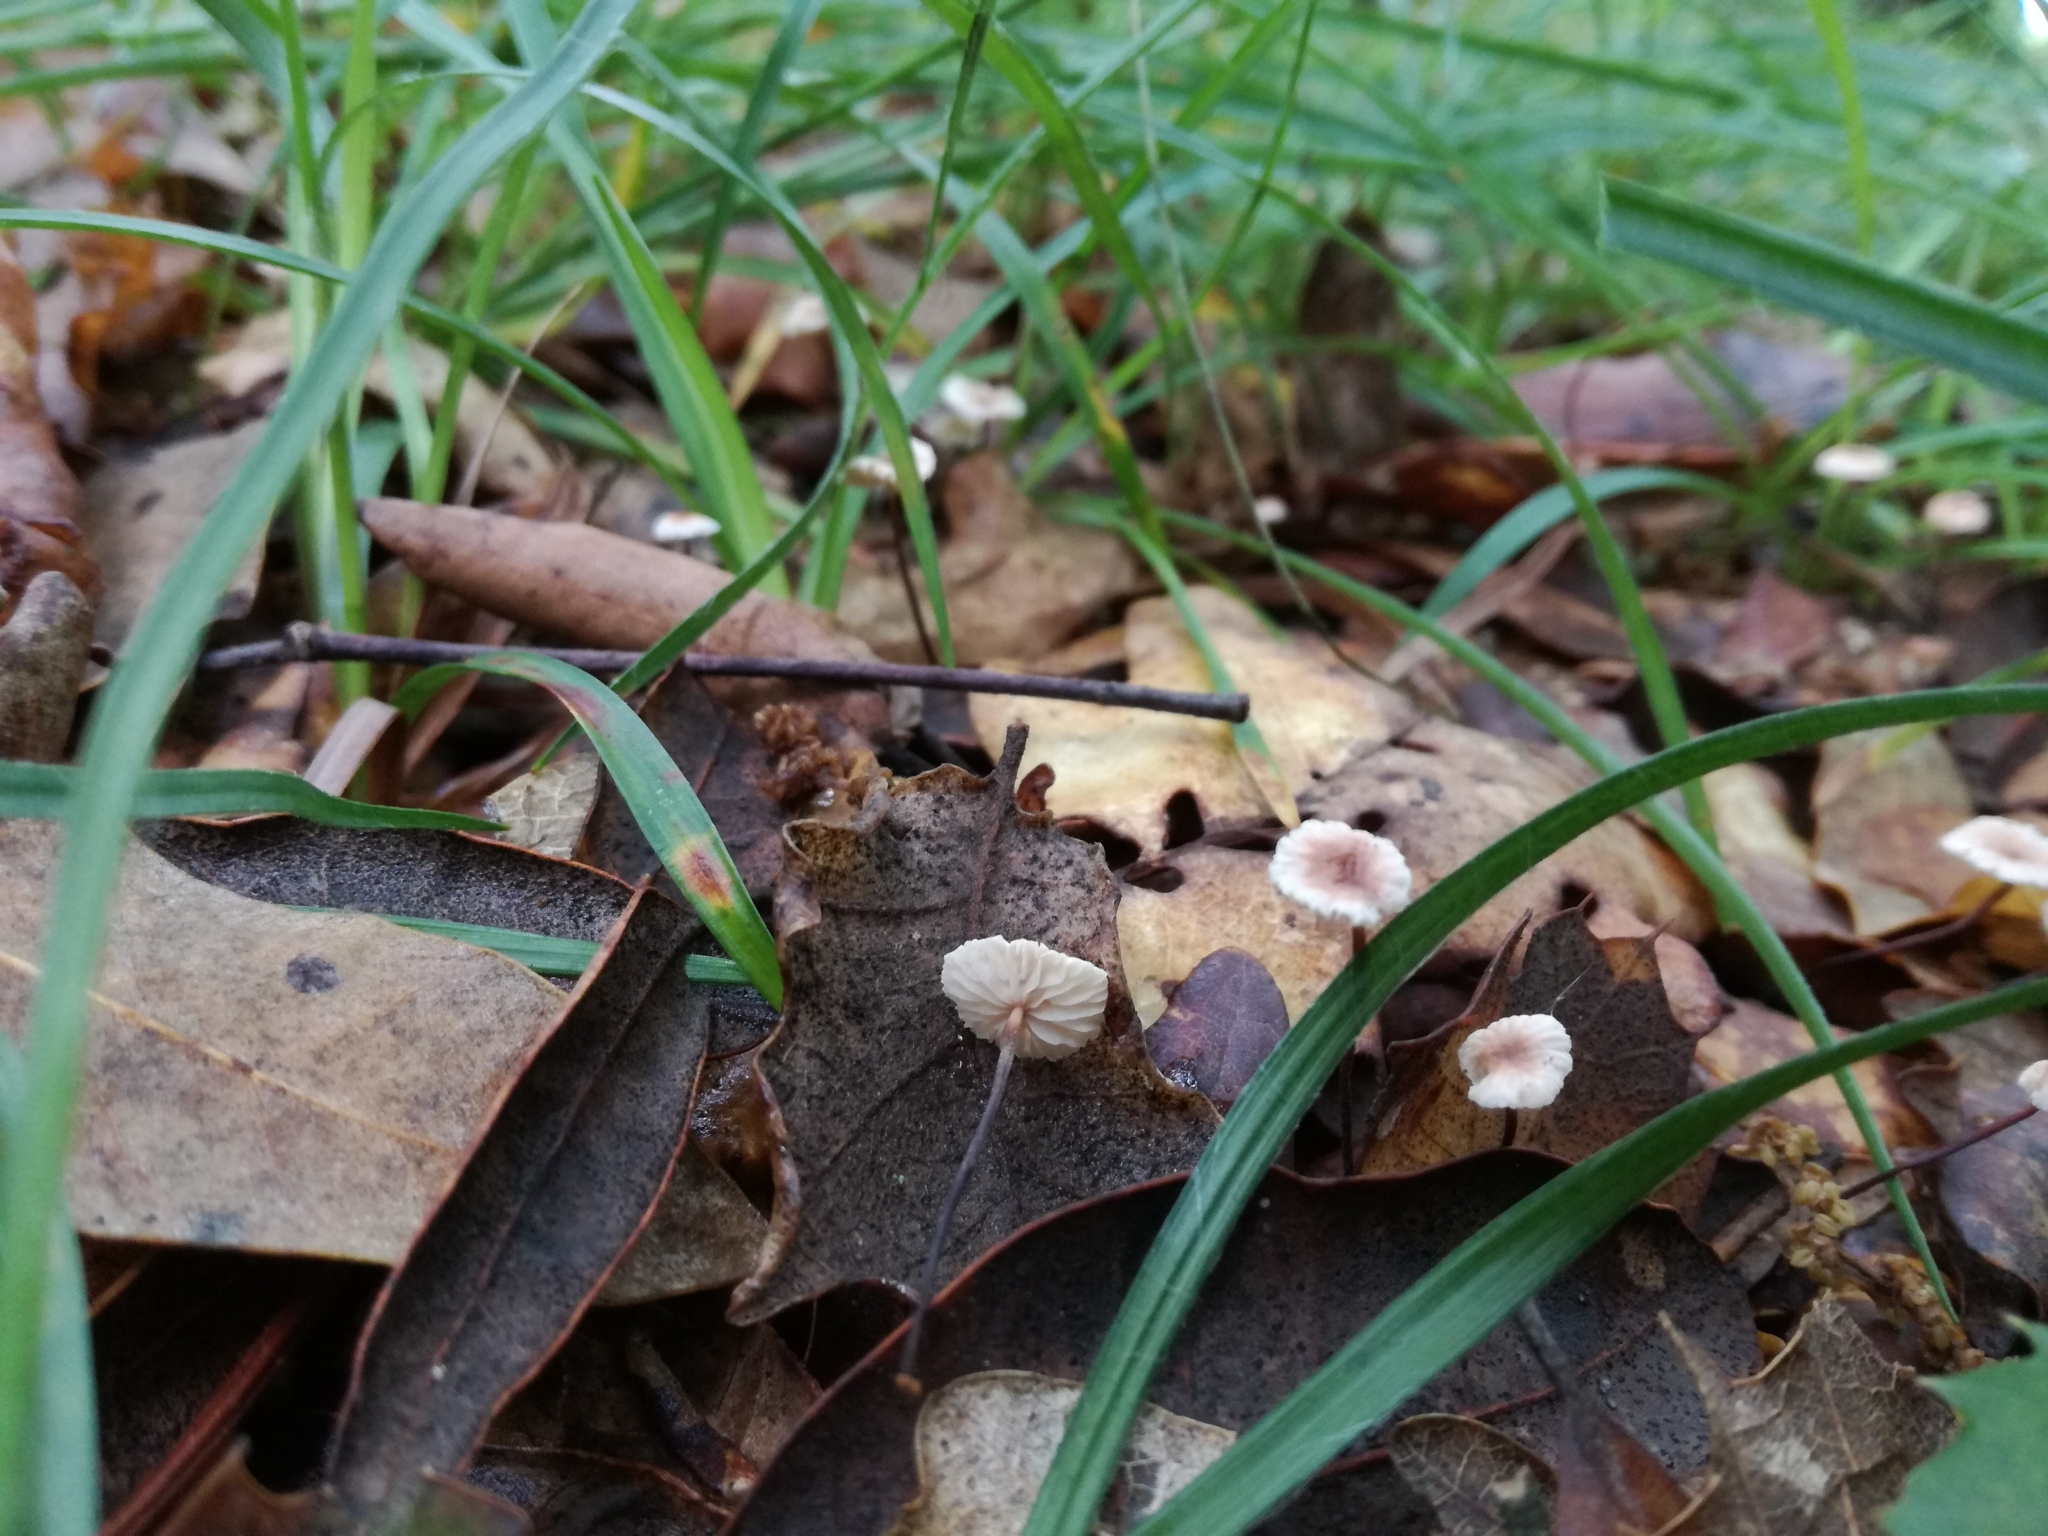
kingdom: Fungi
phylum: Basidiomycota
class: Agaricomycetes
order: Agaricales
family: Omphalotaceae
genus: Collybiopsis
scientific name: Collybiopsis quercophila
